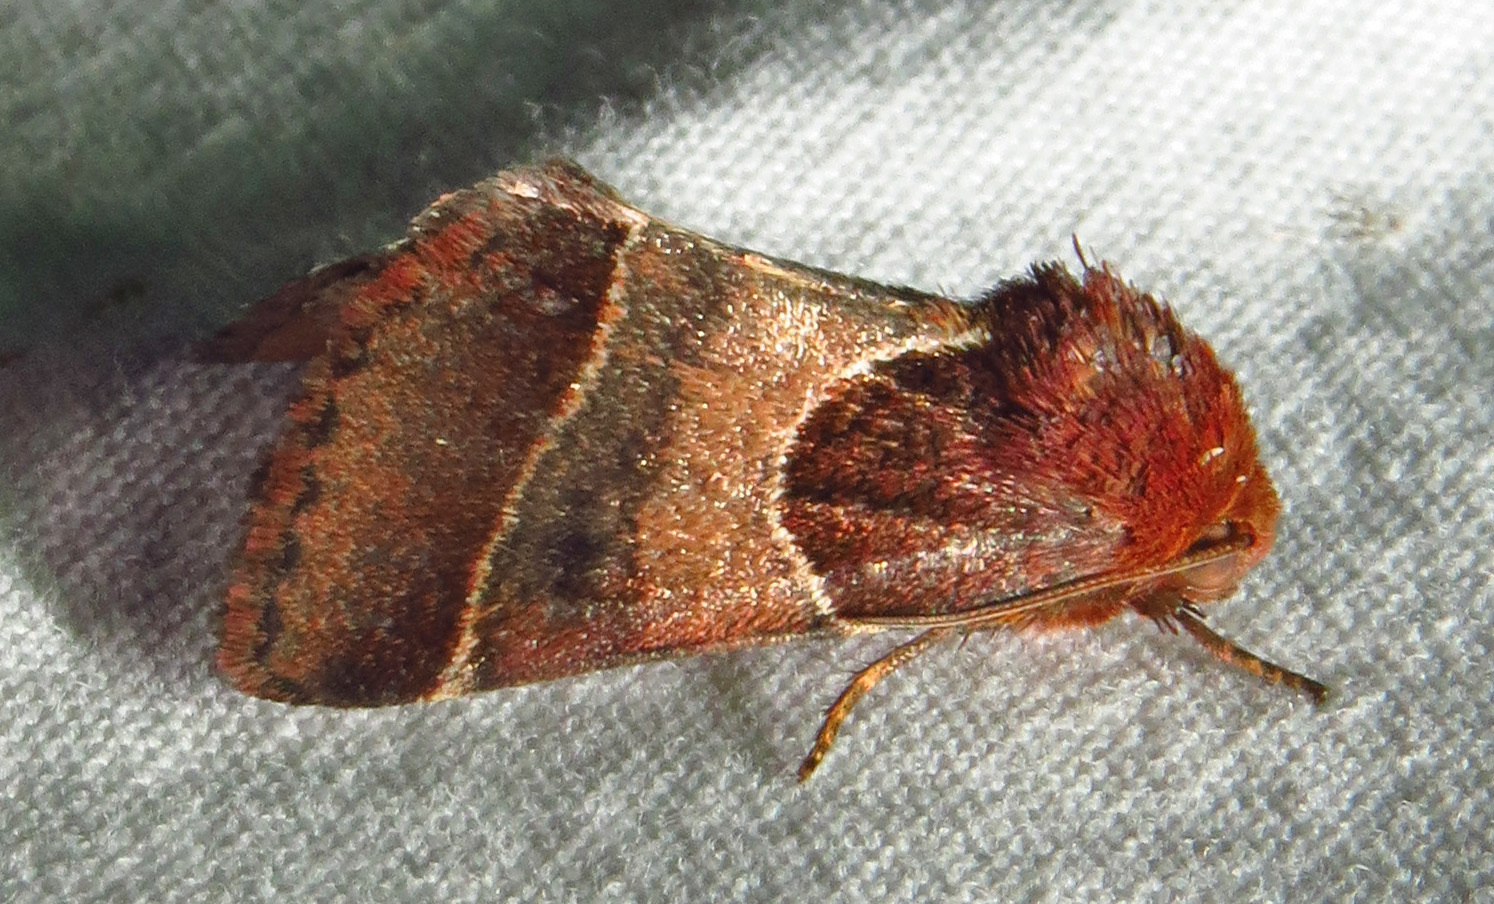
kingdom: Animalia
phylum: Arthropoda
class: Insecta
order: Lepidoptera
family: Noctuidae
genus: Schinia
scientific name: Schinia arcigera
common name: Arcigera flower moth
